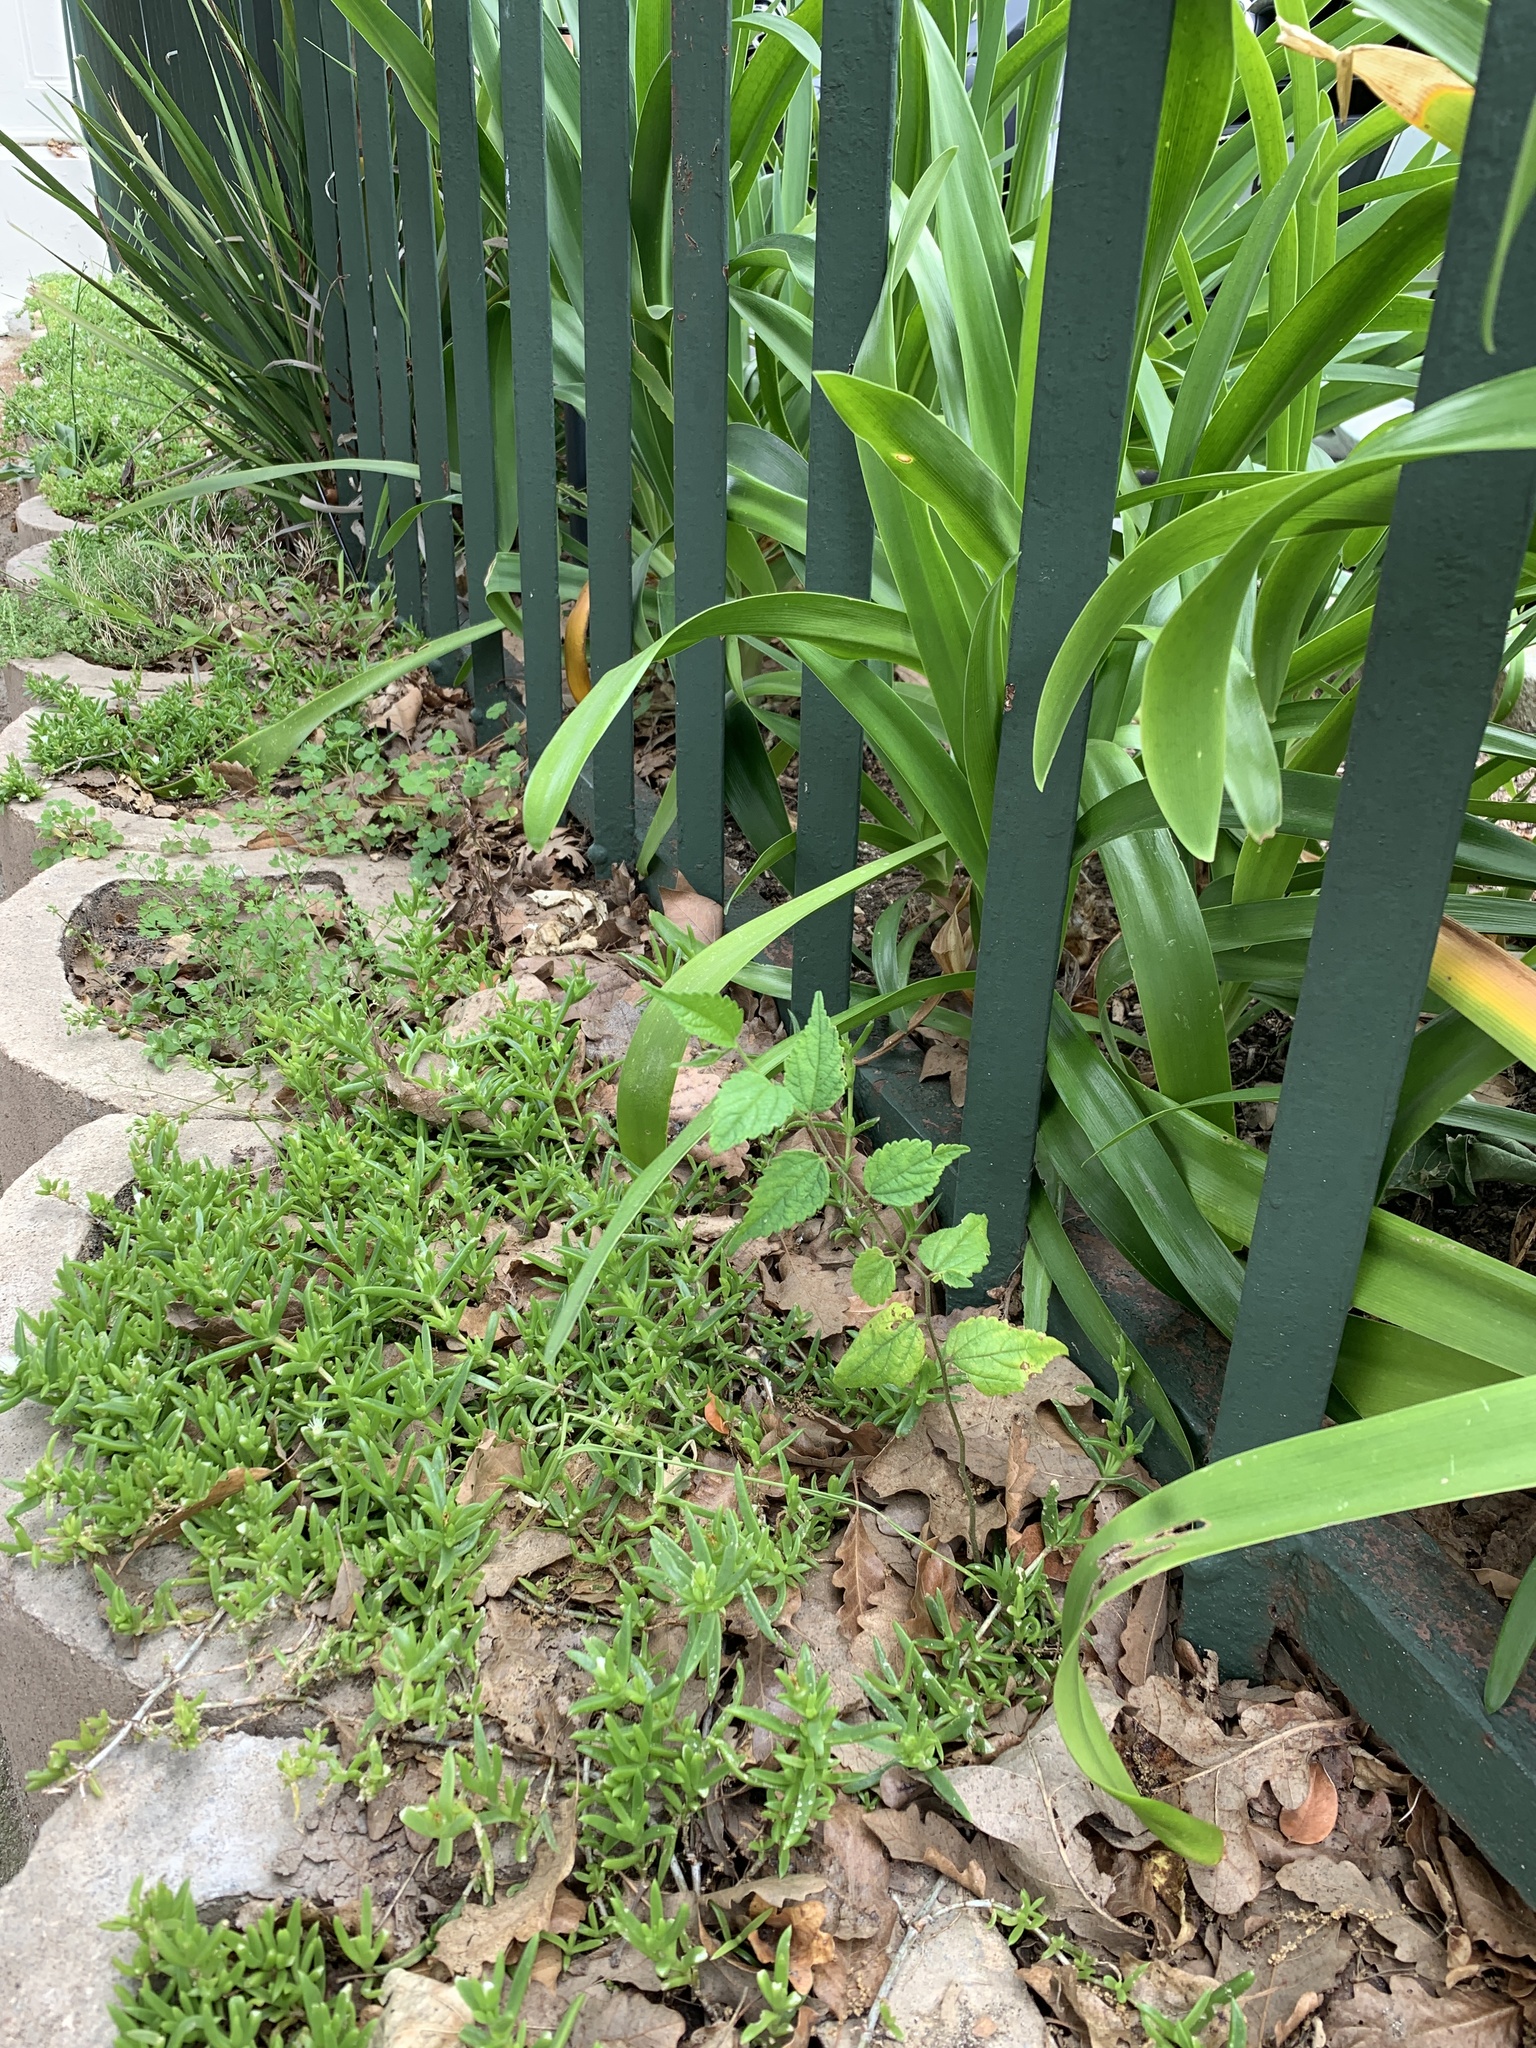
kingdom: Plantae
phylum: Tracheophyta
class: Magnoliopsida
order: Rosales
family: Cannabaceae
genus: Celtis
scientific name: Celtis sinensis
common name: Chinese hackberry
